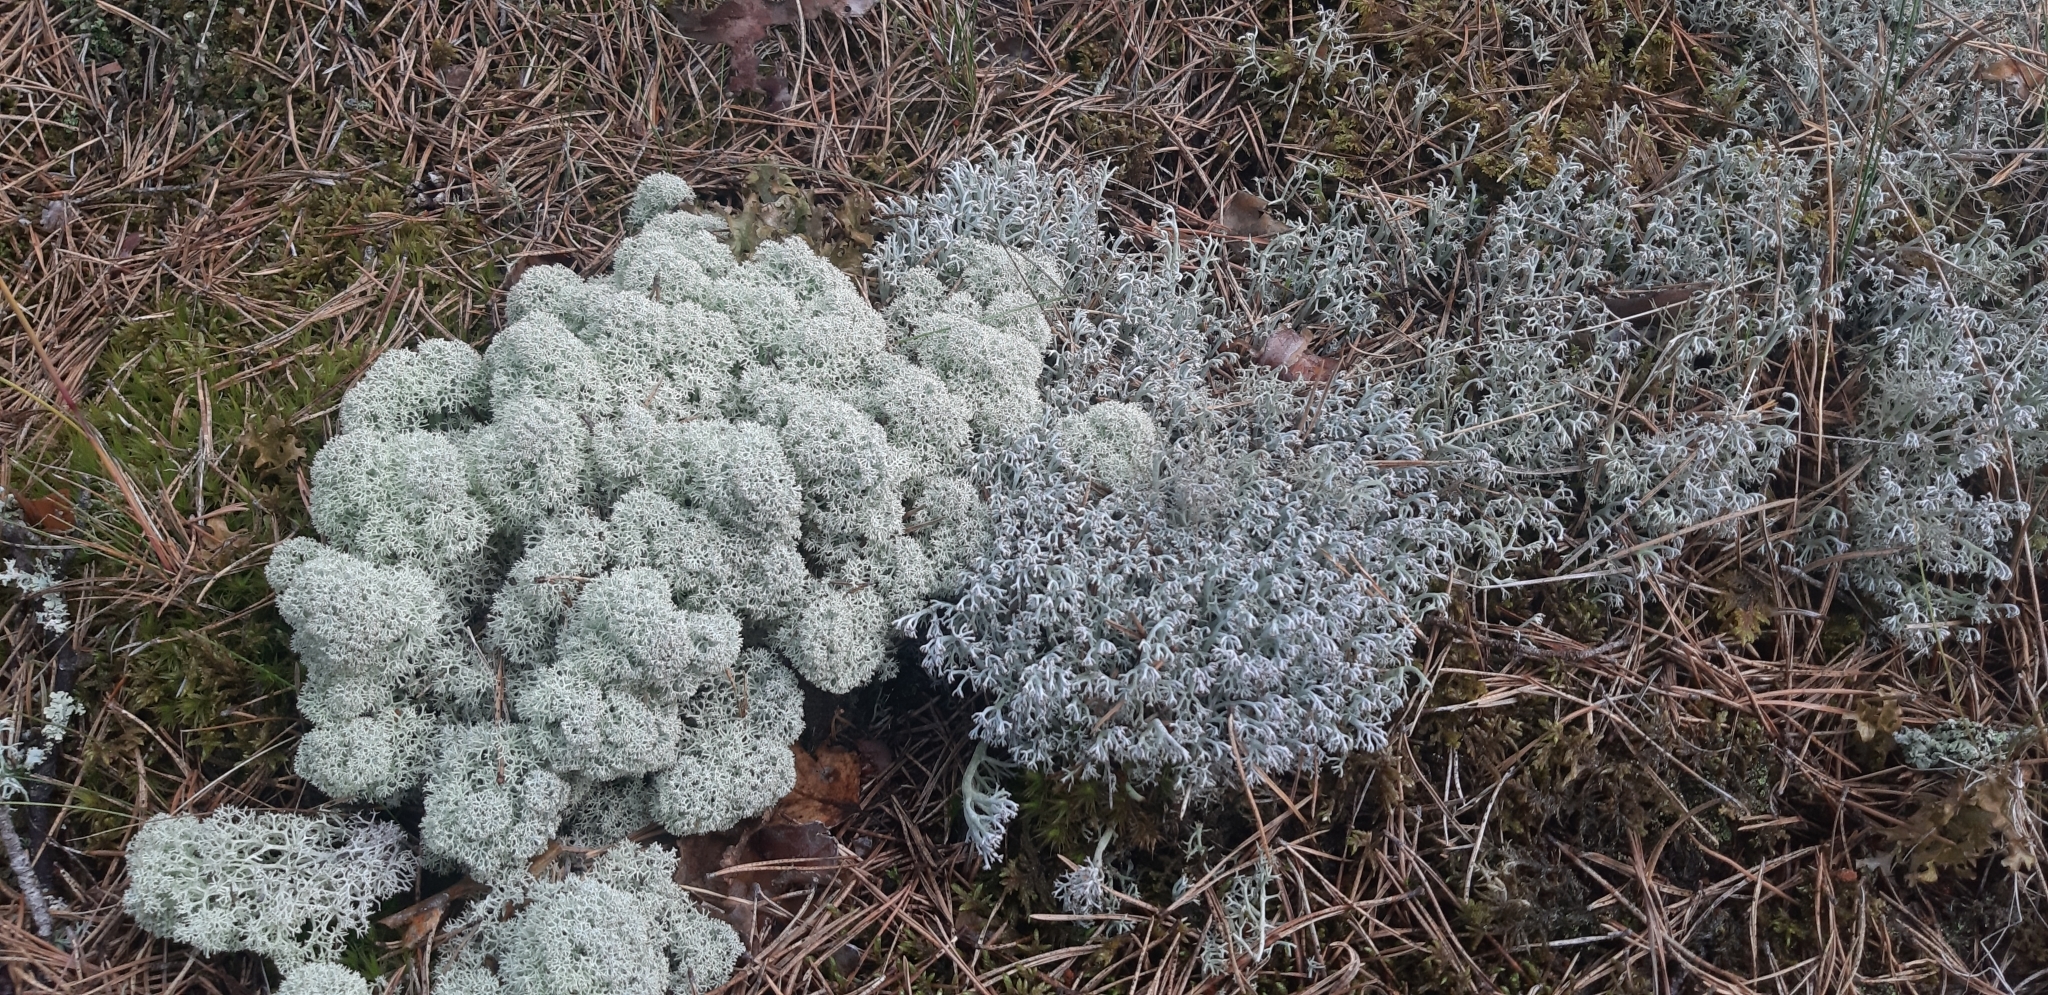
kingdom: Fungi
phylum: Ascomycota
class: Lecanoromycetes
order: Lecanorales
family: Cladoniaceae
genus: Cladonia
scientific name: Cladonia rangiferina
